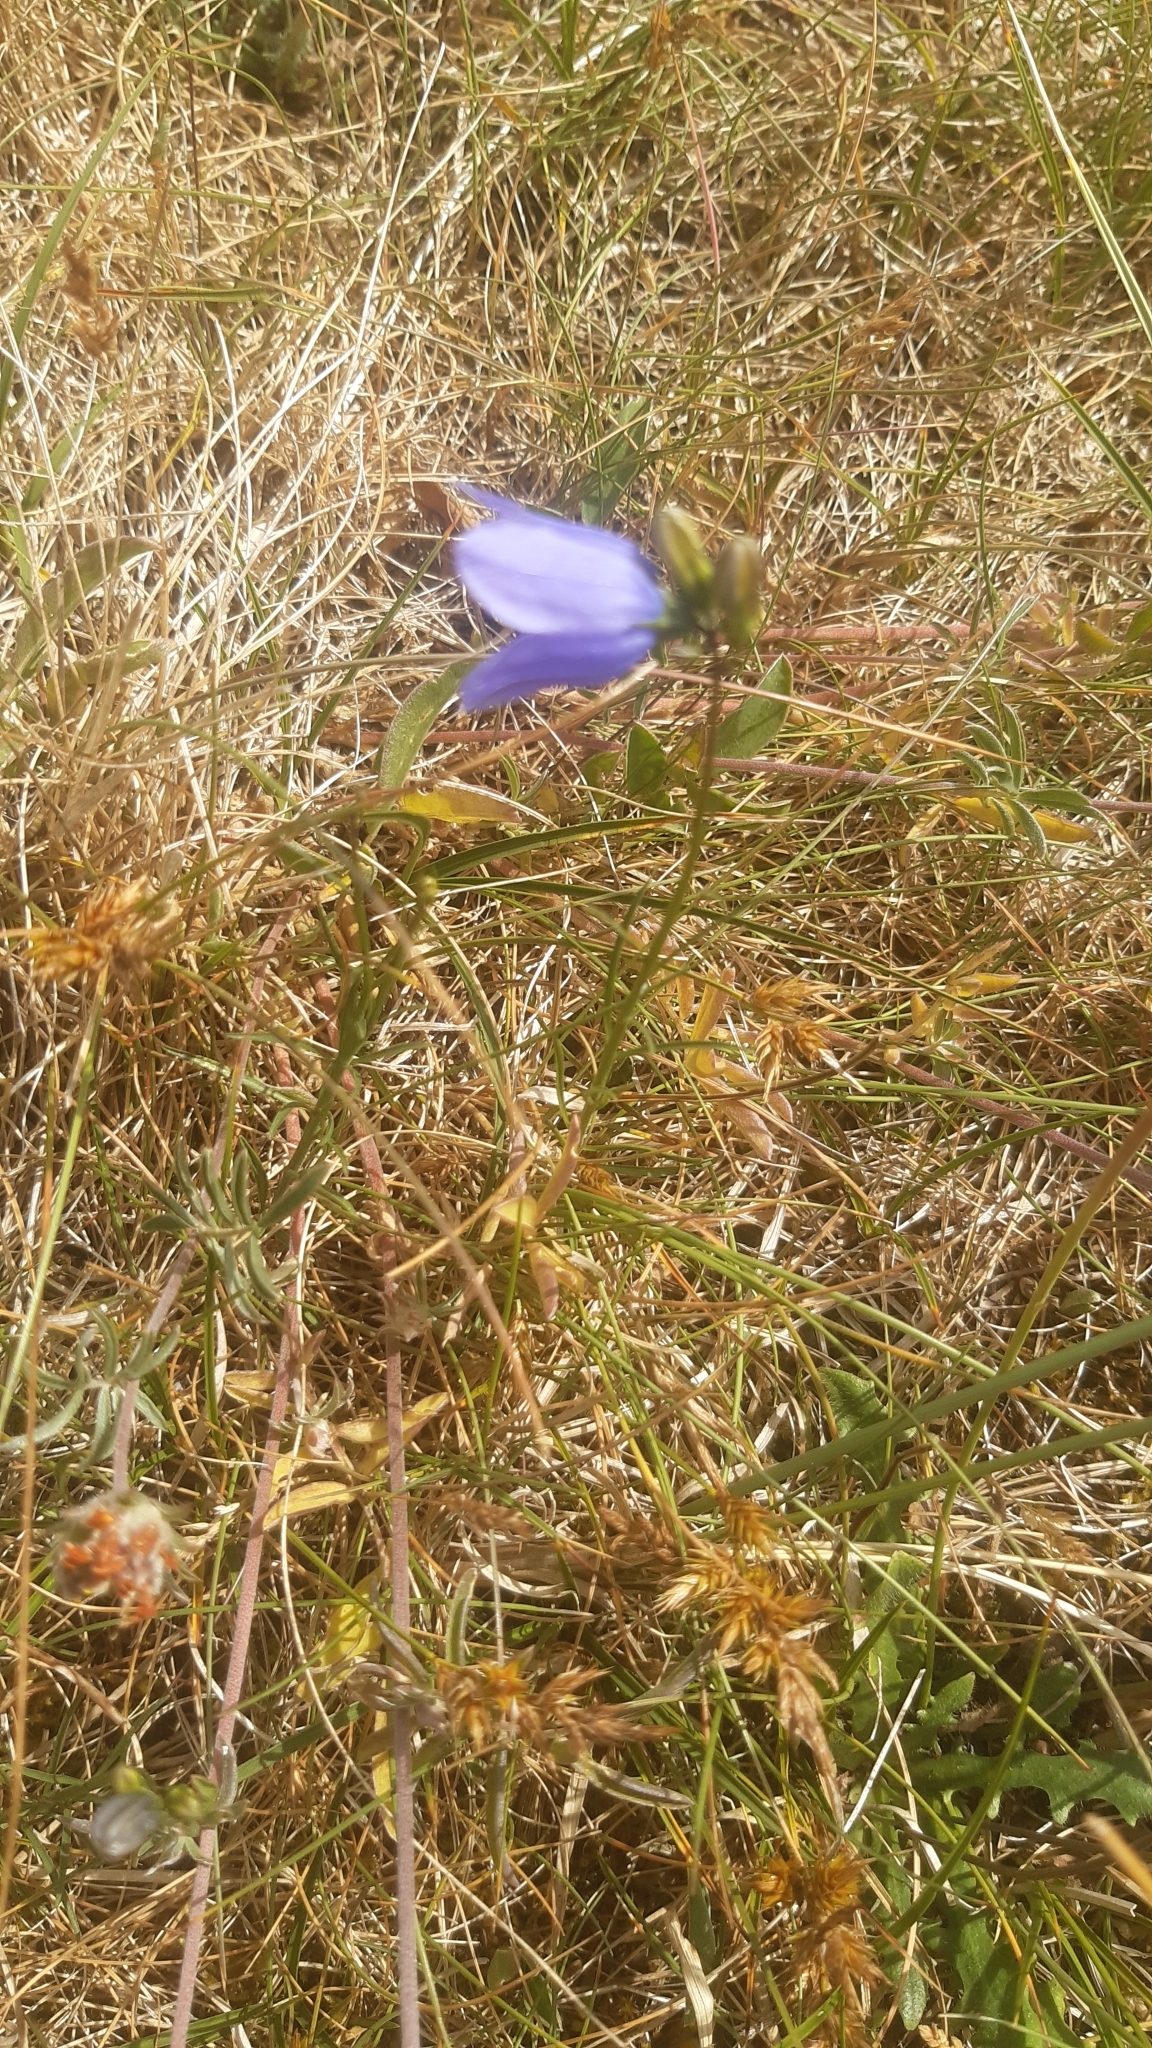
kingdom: Plantae
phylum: Tracheophyta
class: Magnoliopsida
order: Asterales
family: Campanulaceae
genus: Campanula
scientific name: Campanula rotundifolia
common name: Harebell
